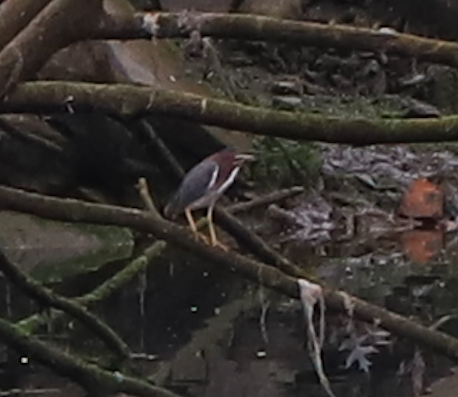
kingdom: Animalia
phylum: Chordata
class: Aves
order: Pelecaniformes
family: Ardeidae
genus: Butorides
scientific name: Butorides virescens
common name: Green heron
